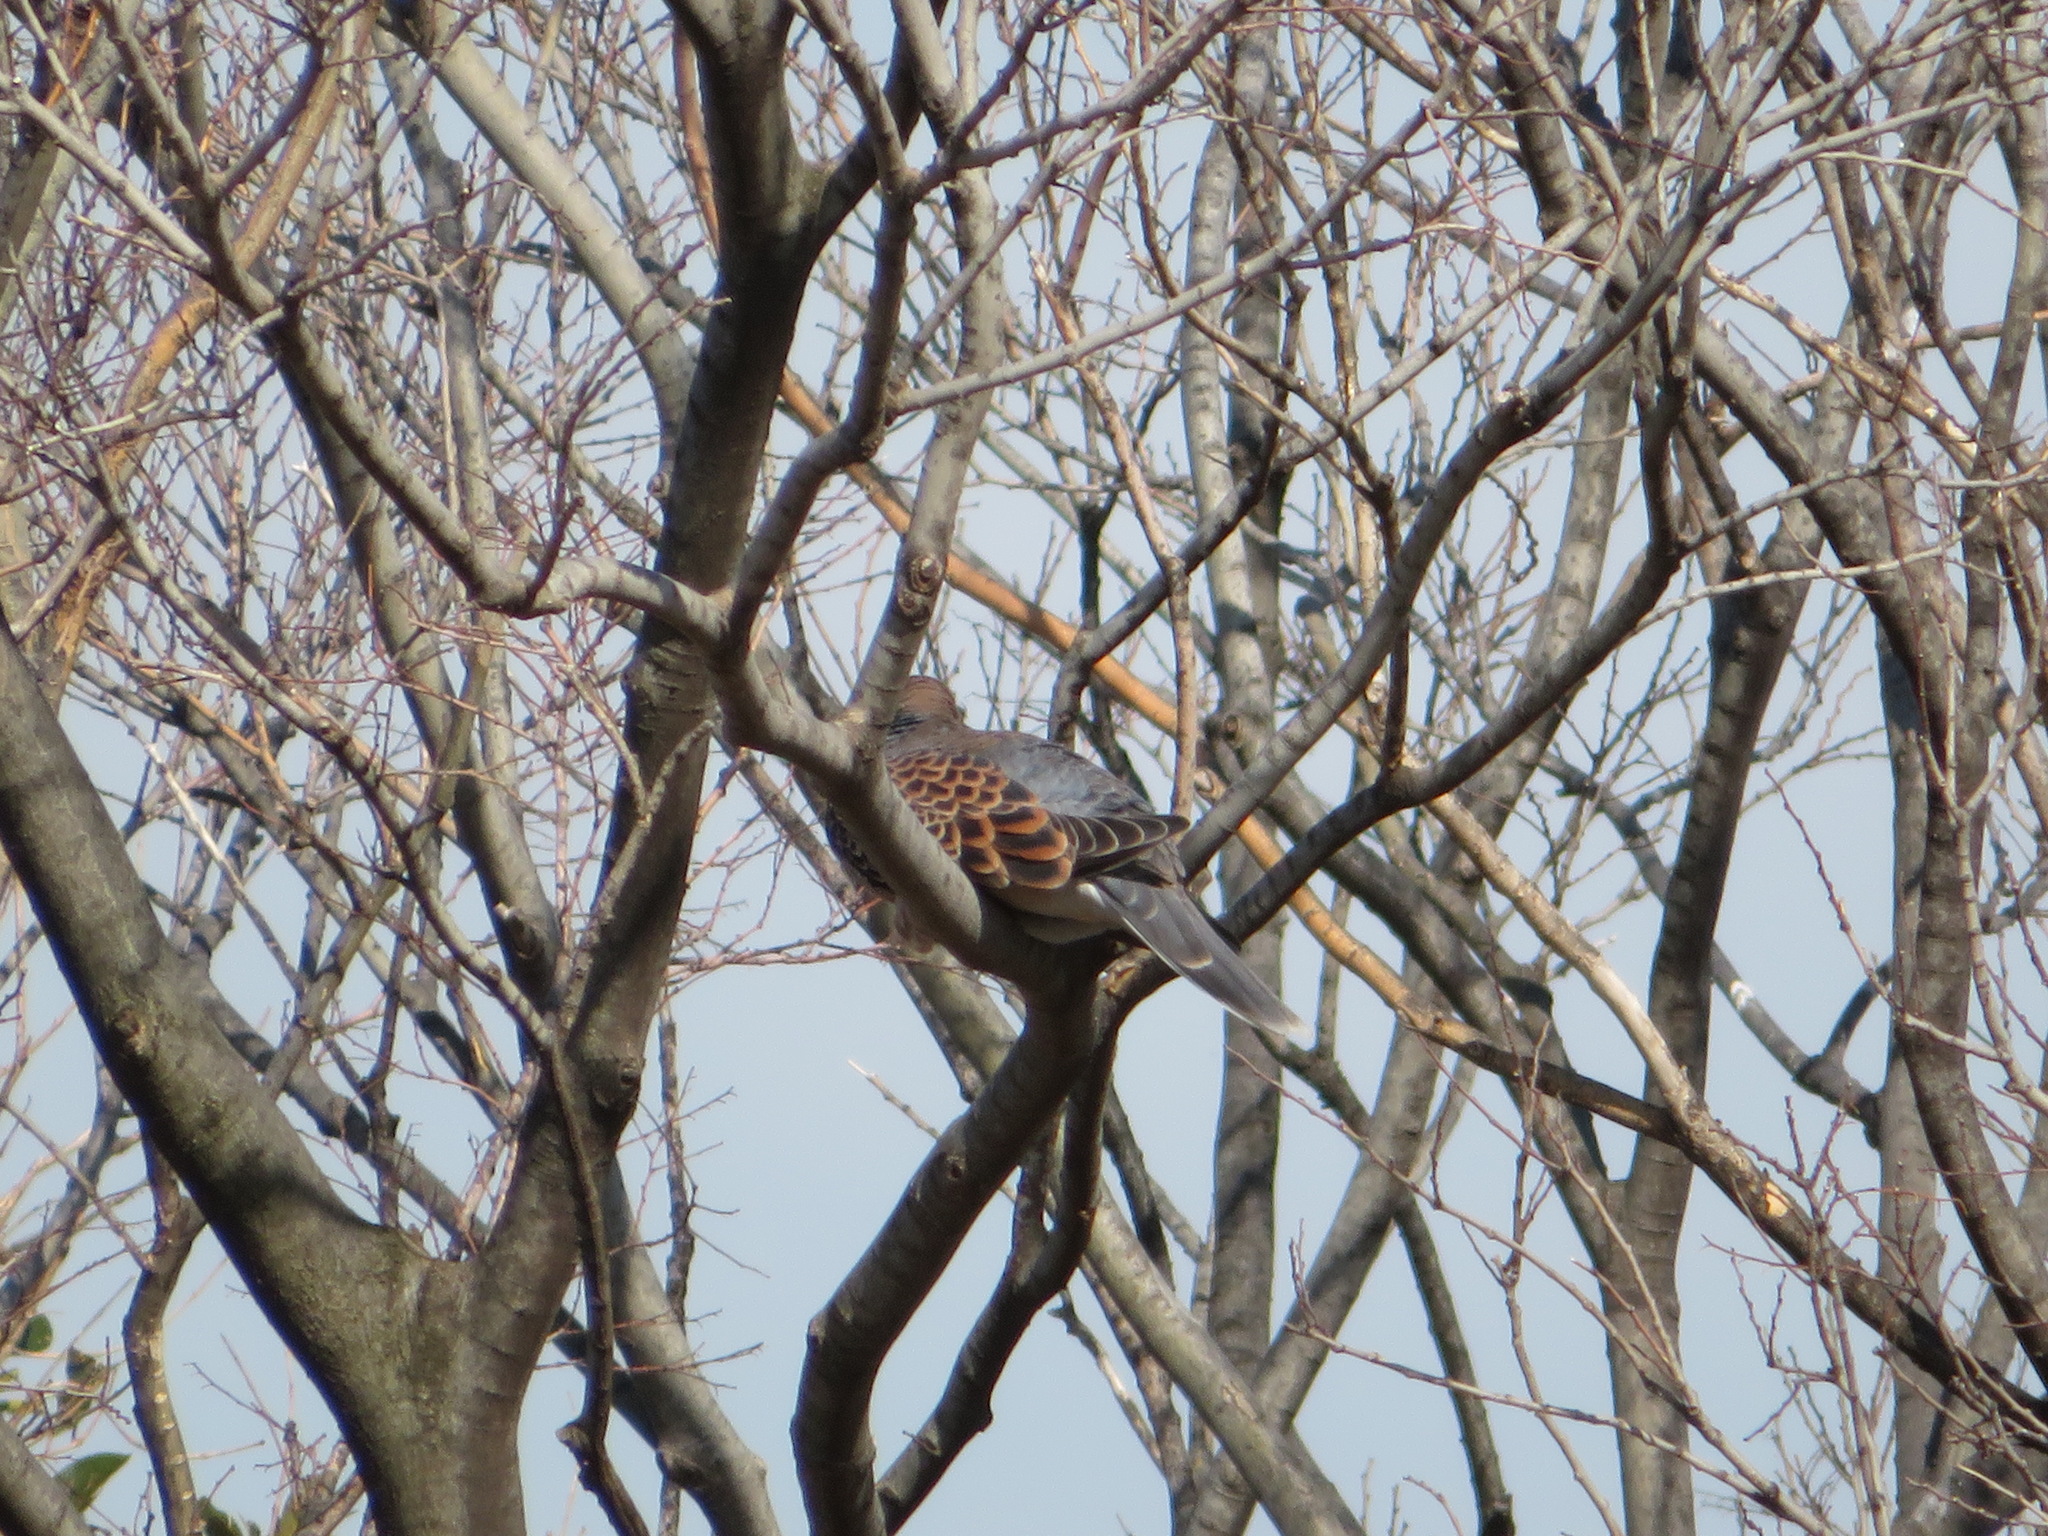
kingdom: Animalia
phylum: Chordata
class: Aves
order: Columbiformes
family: Columbidae
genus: Streptopelia
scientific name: Streptopelia orientalis
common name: Oriental turtle dove
